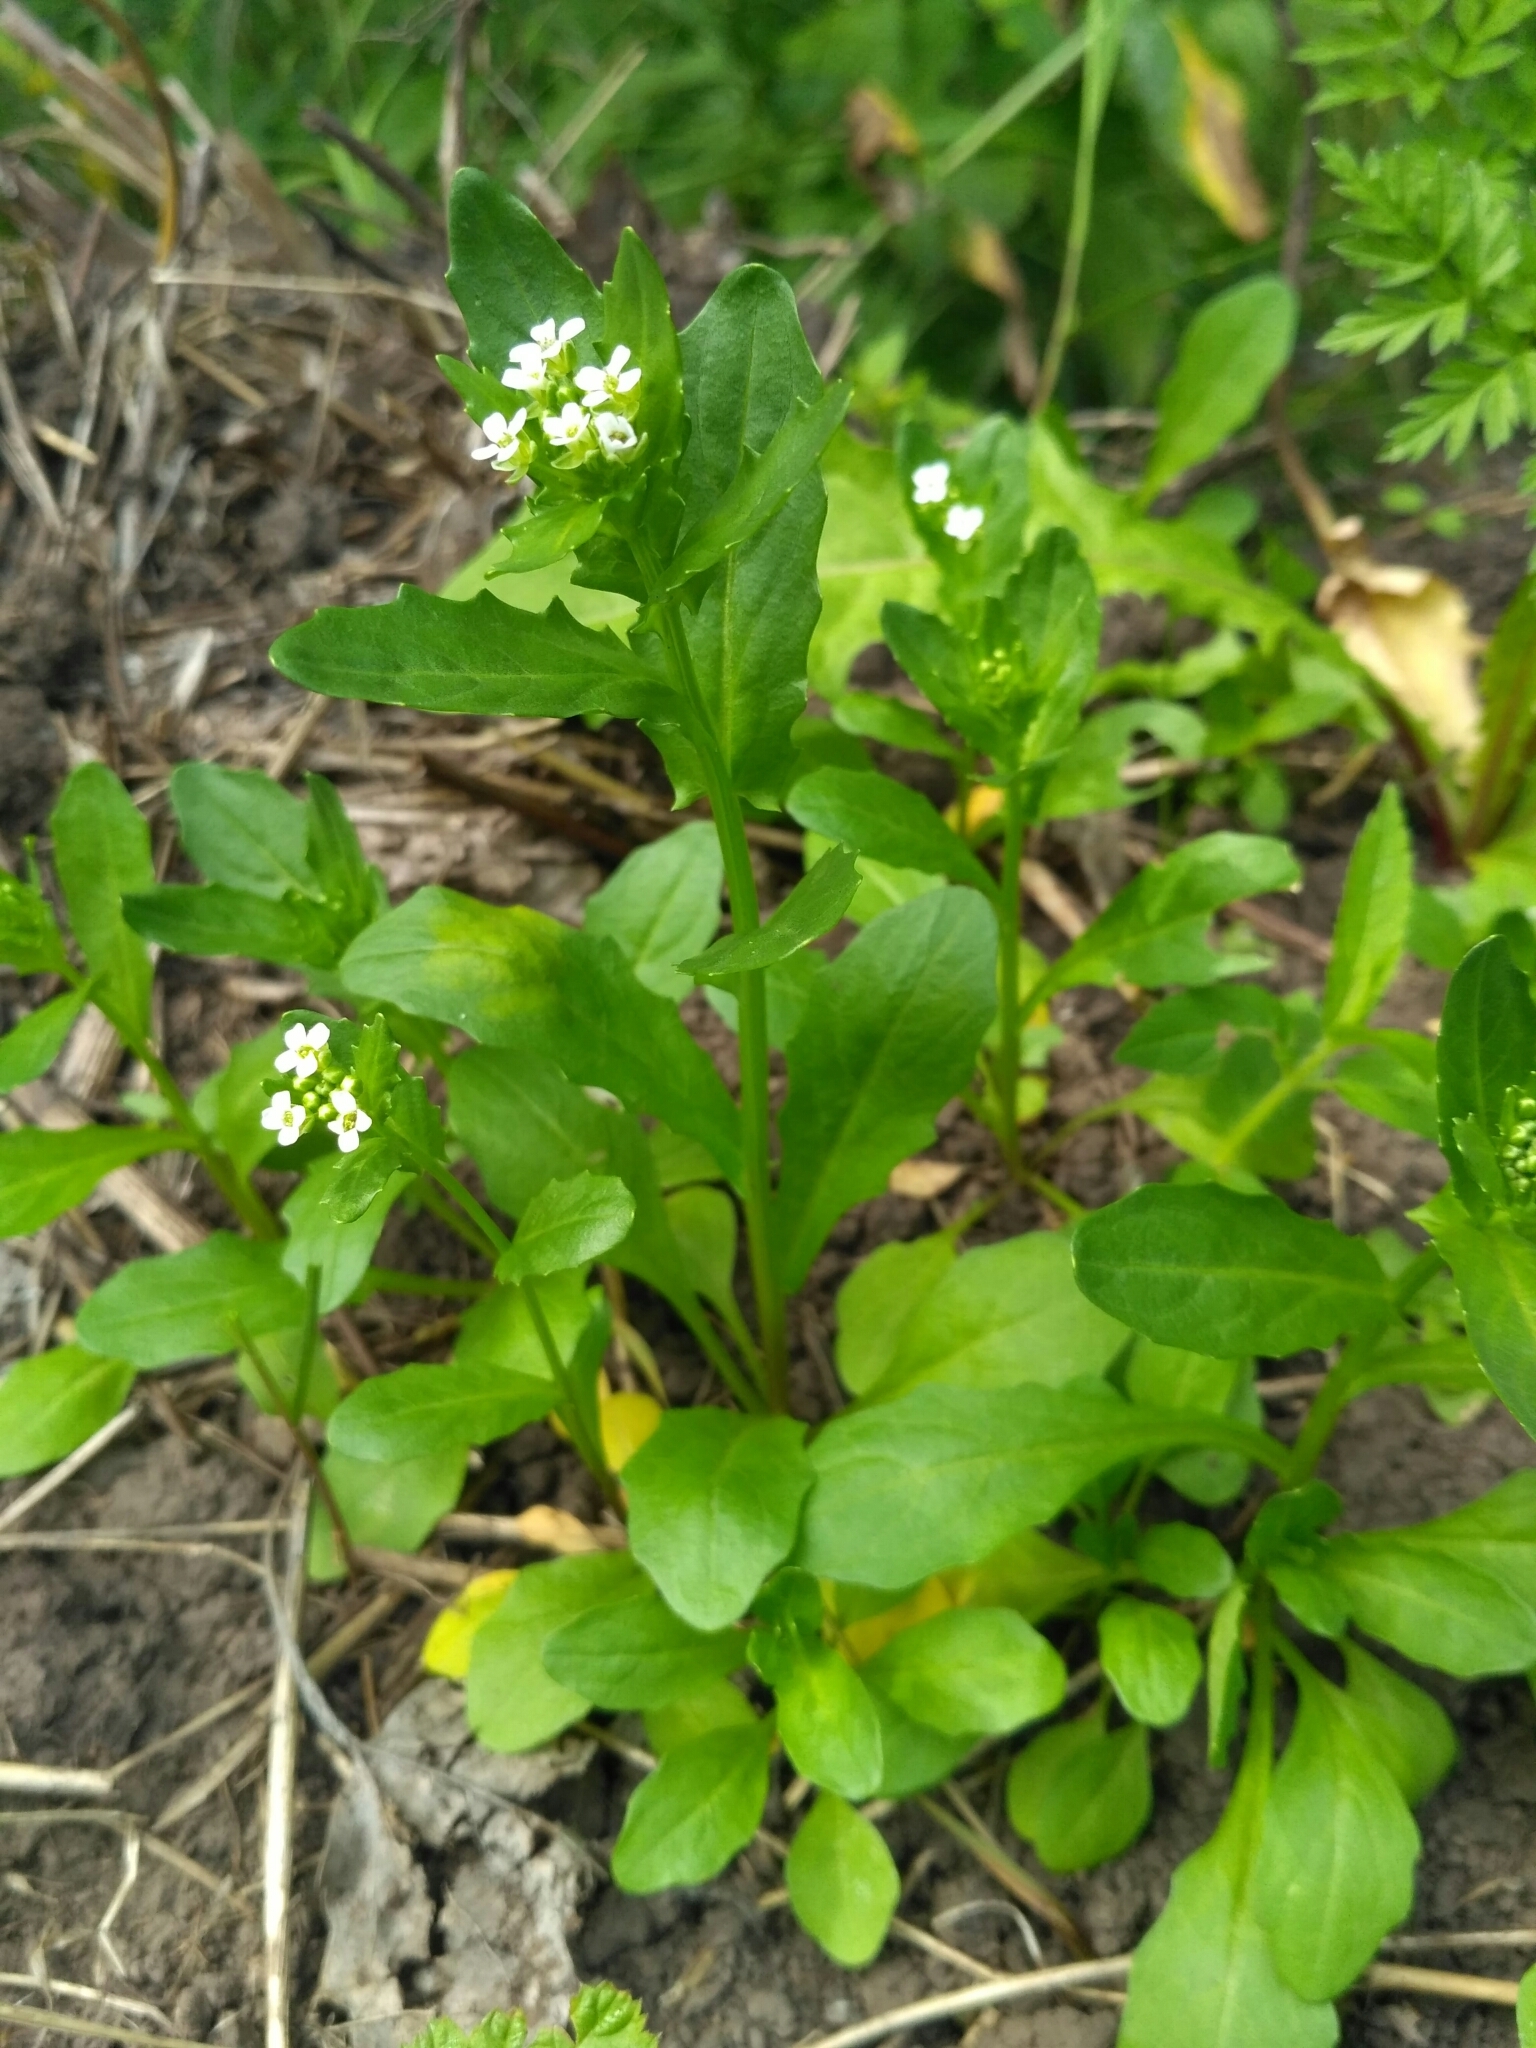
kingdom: Plantae
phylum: Tracheophyta
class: Magnoliopsida
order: Brassicales
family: Brassicaceae
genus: Thlaspi
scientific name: Thlaspi arvense
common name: Field pennycress
